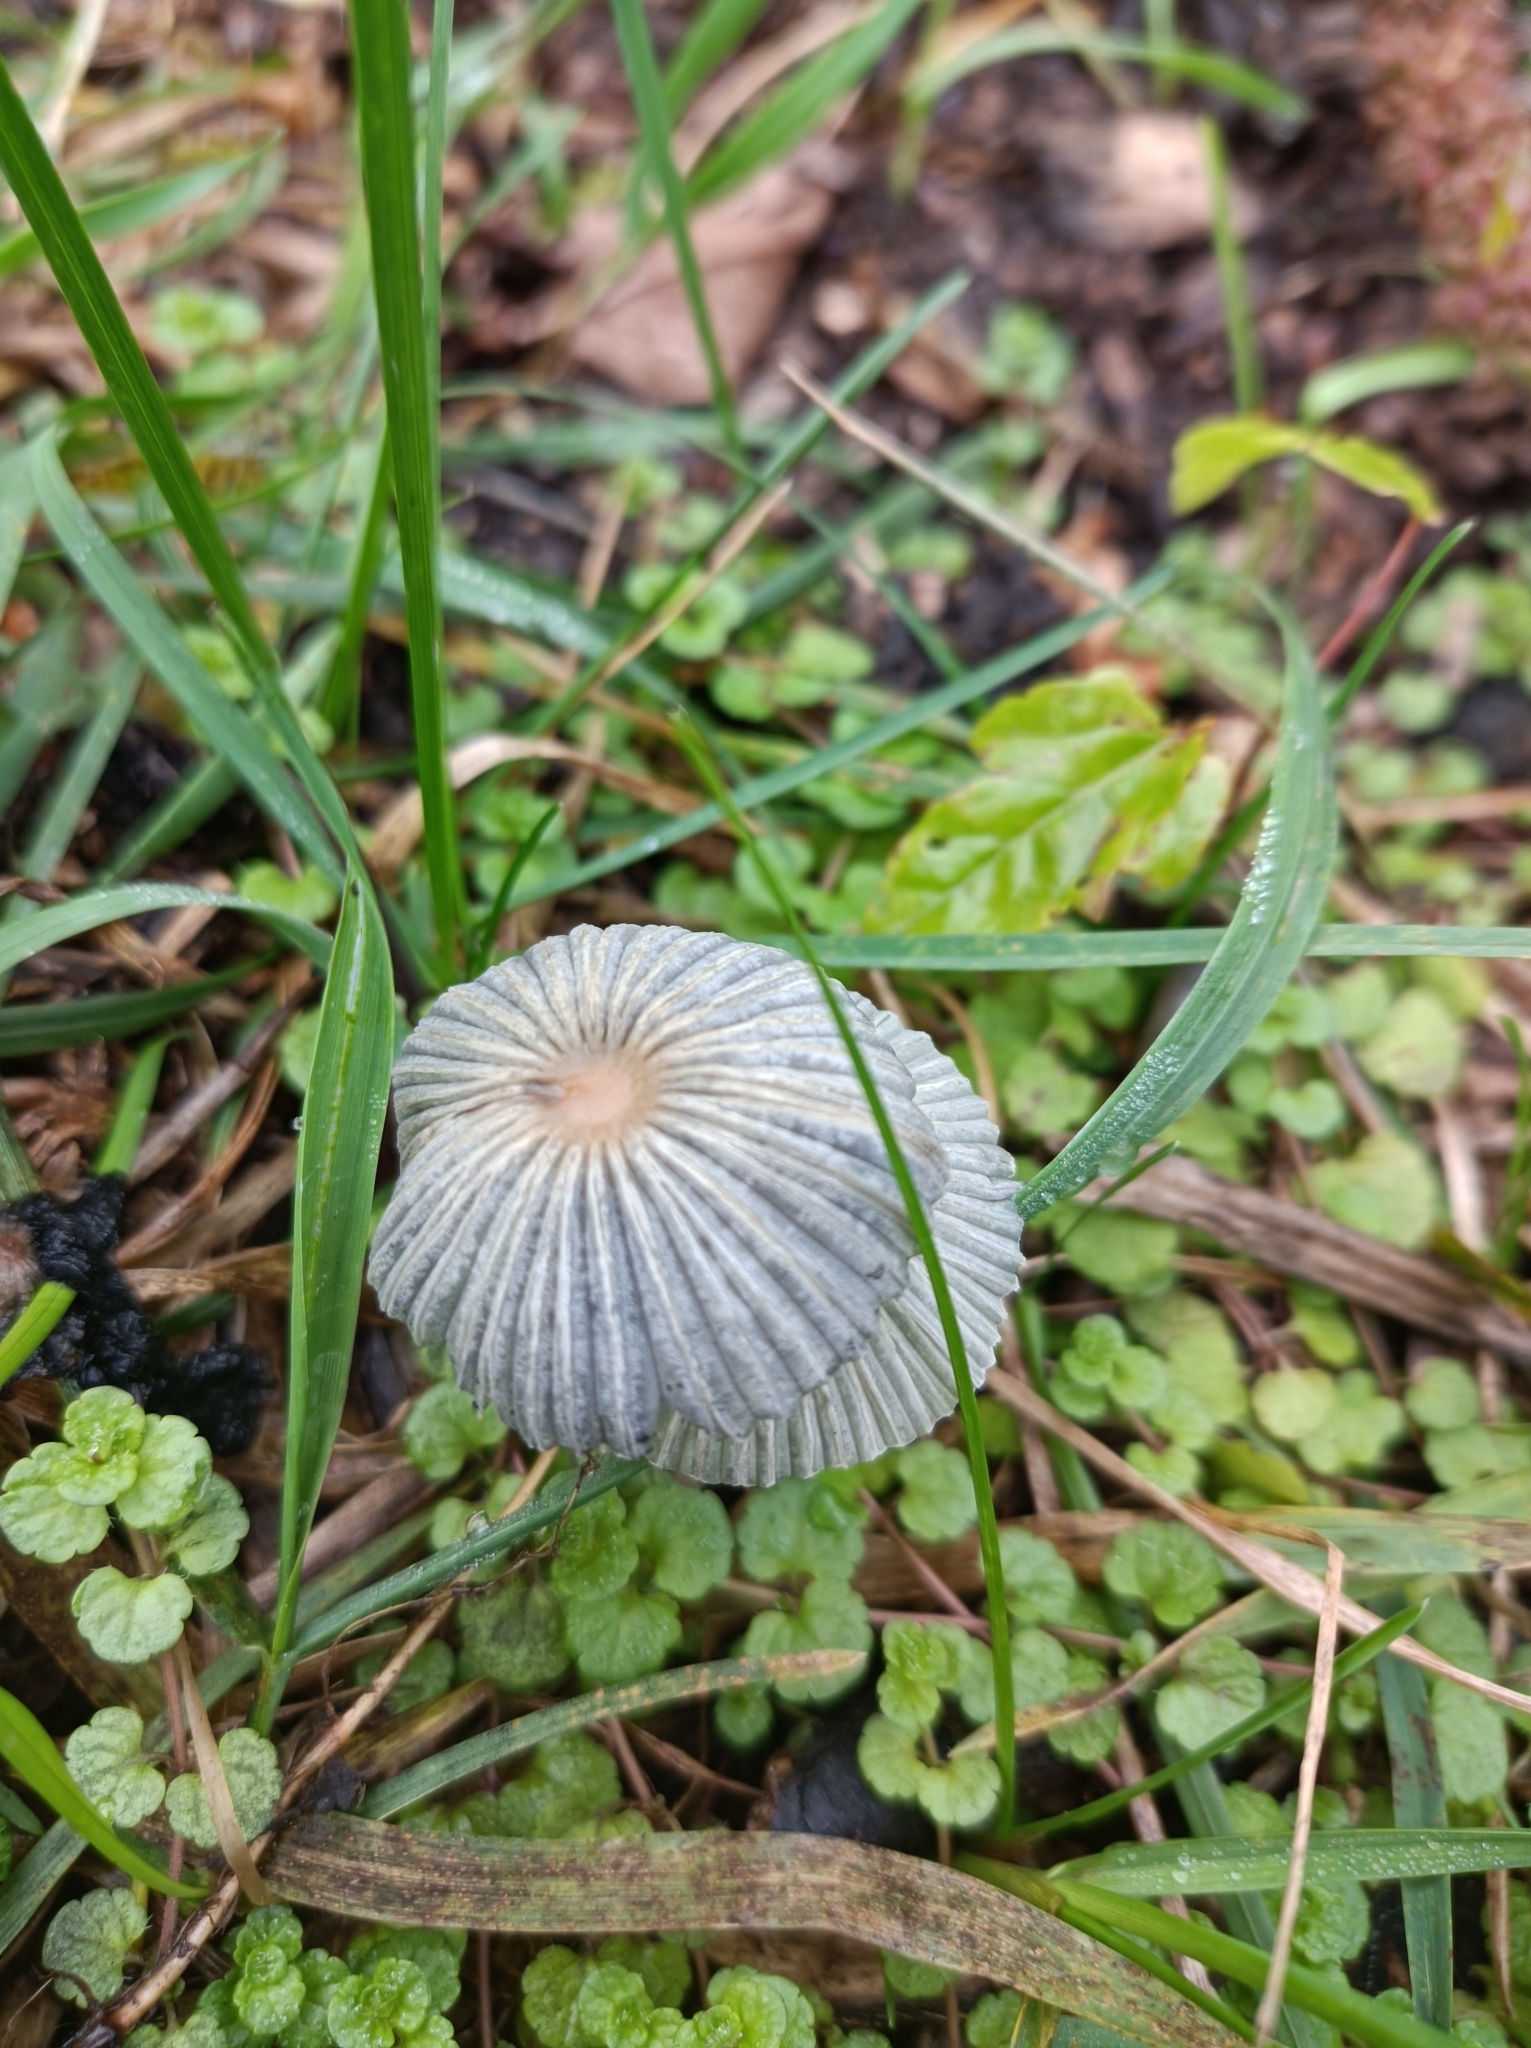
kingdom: Fungi
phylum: Basidiomycota
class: Agaricomycetes
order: Agaricales
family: Psathyrellaceae
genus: Parasola
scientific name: Parasola plicatilis
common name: Pleated inkcap
